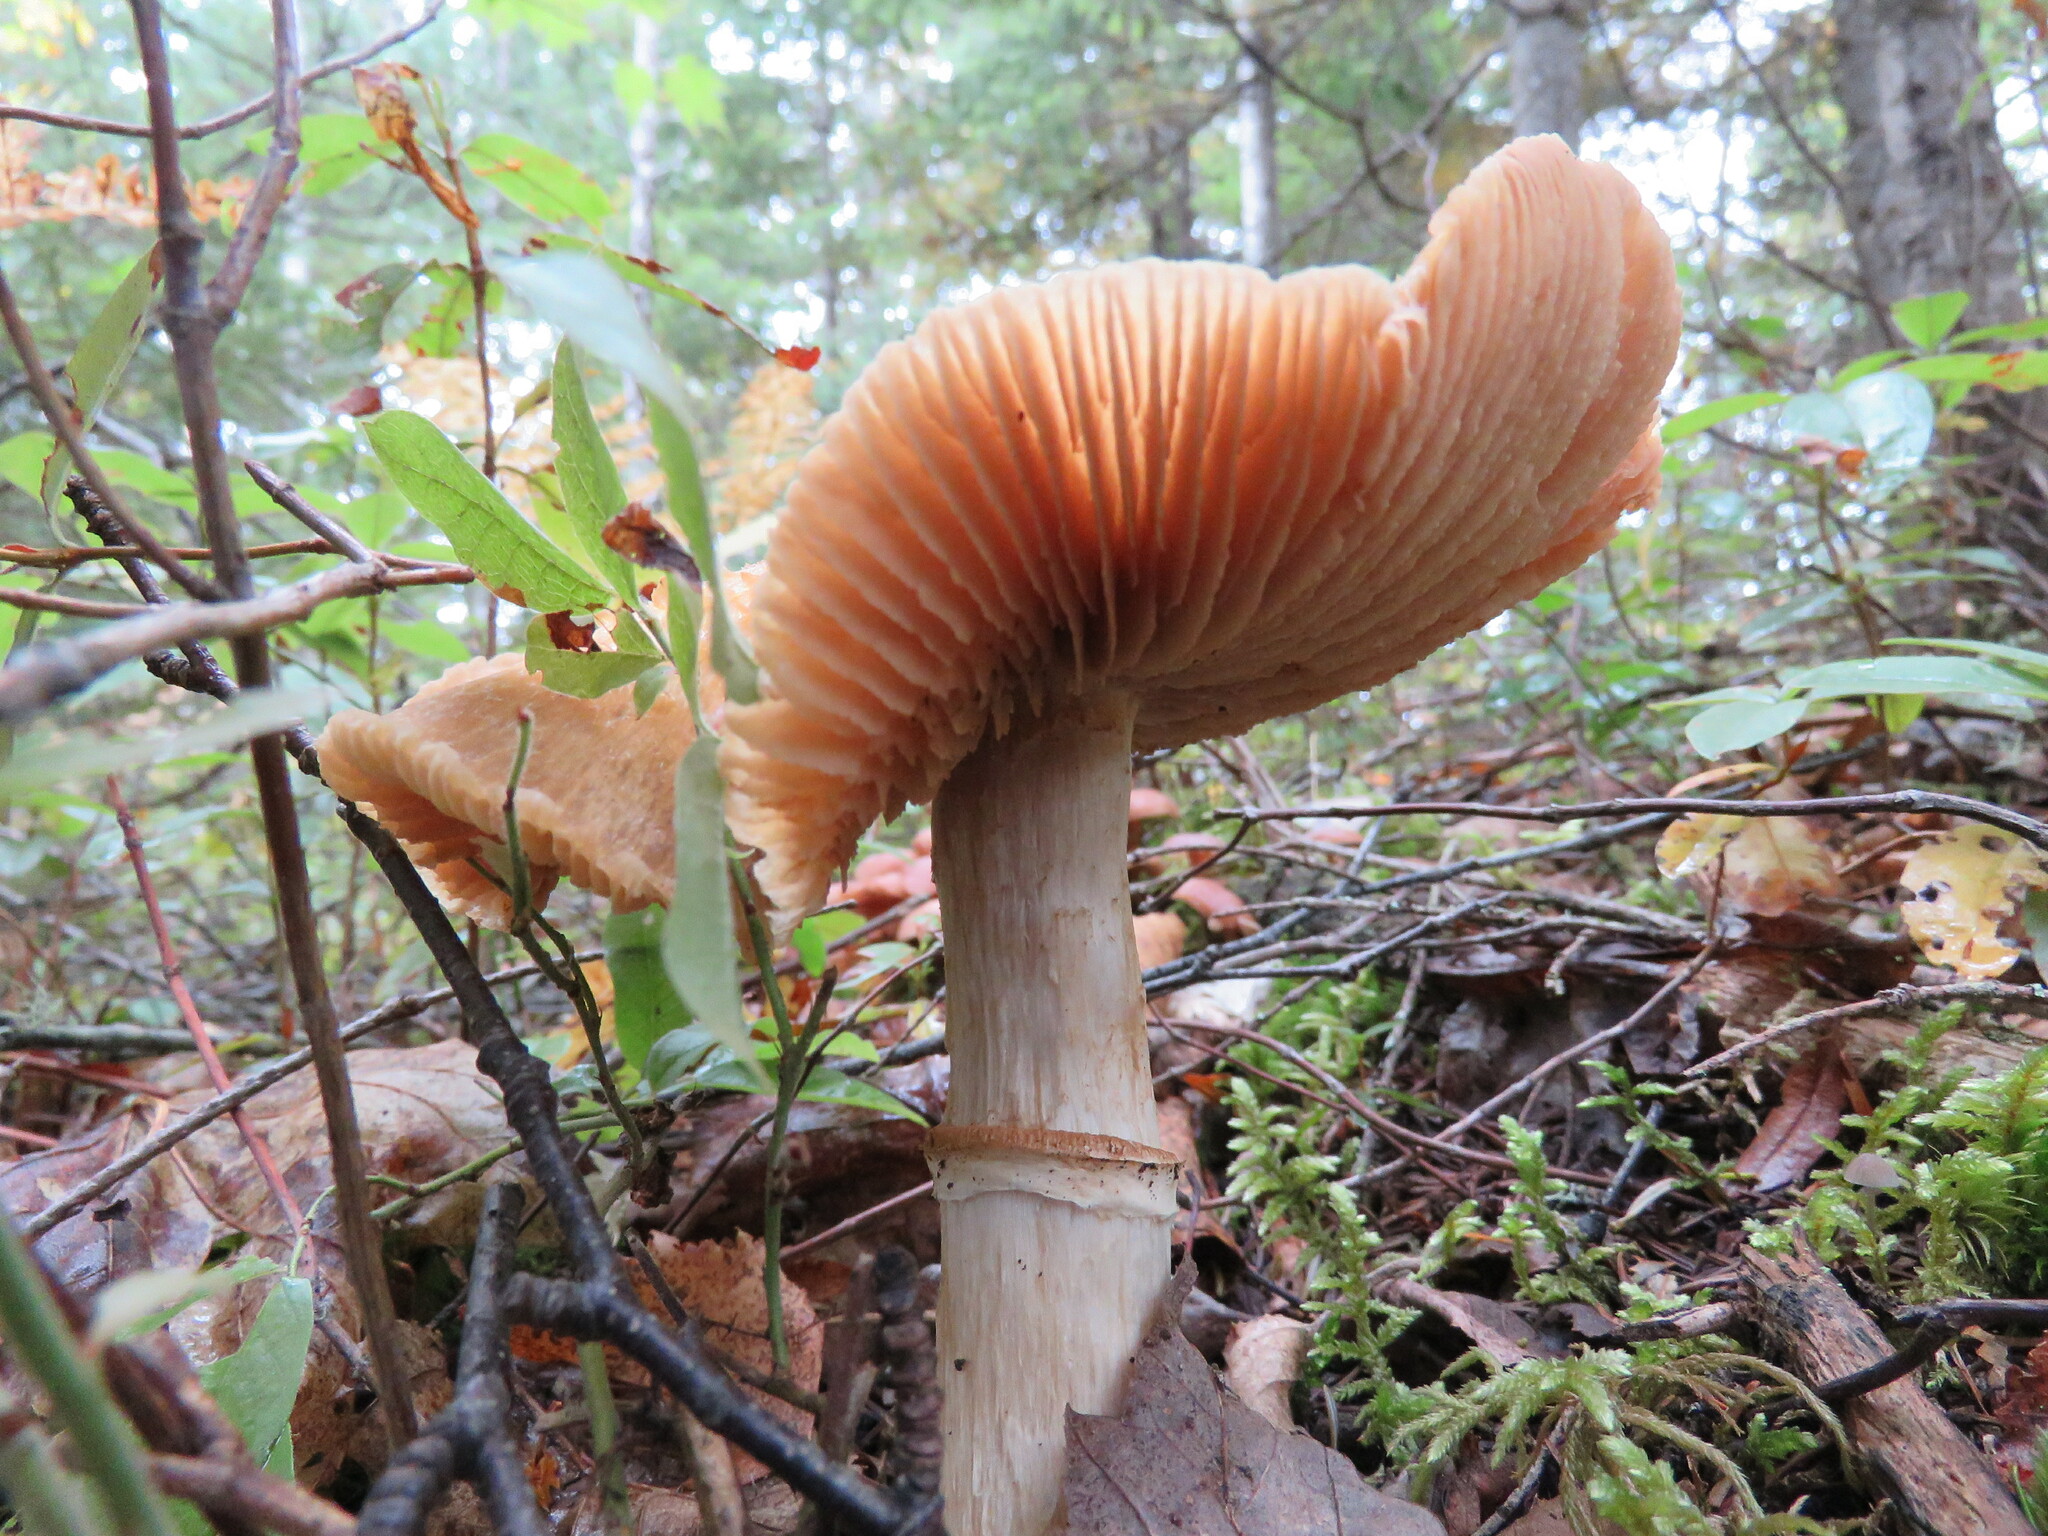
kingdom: Fungi
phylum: Basidiomycota
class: Agaricomycetes
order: Agaricales
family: Cortinariaceae
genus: Cortinarius
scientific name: Cortinarius caperatus
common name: The gypsy
